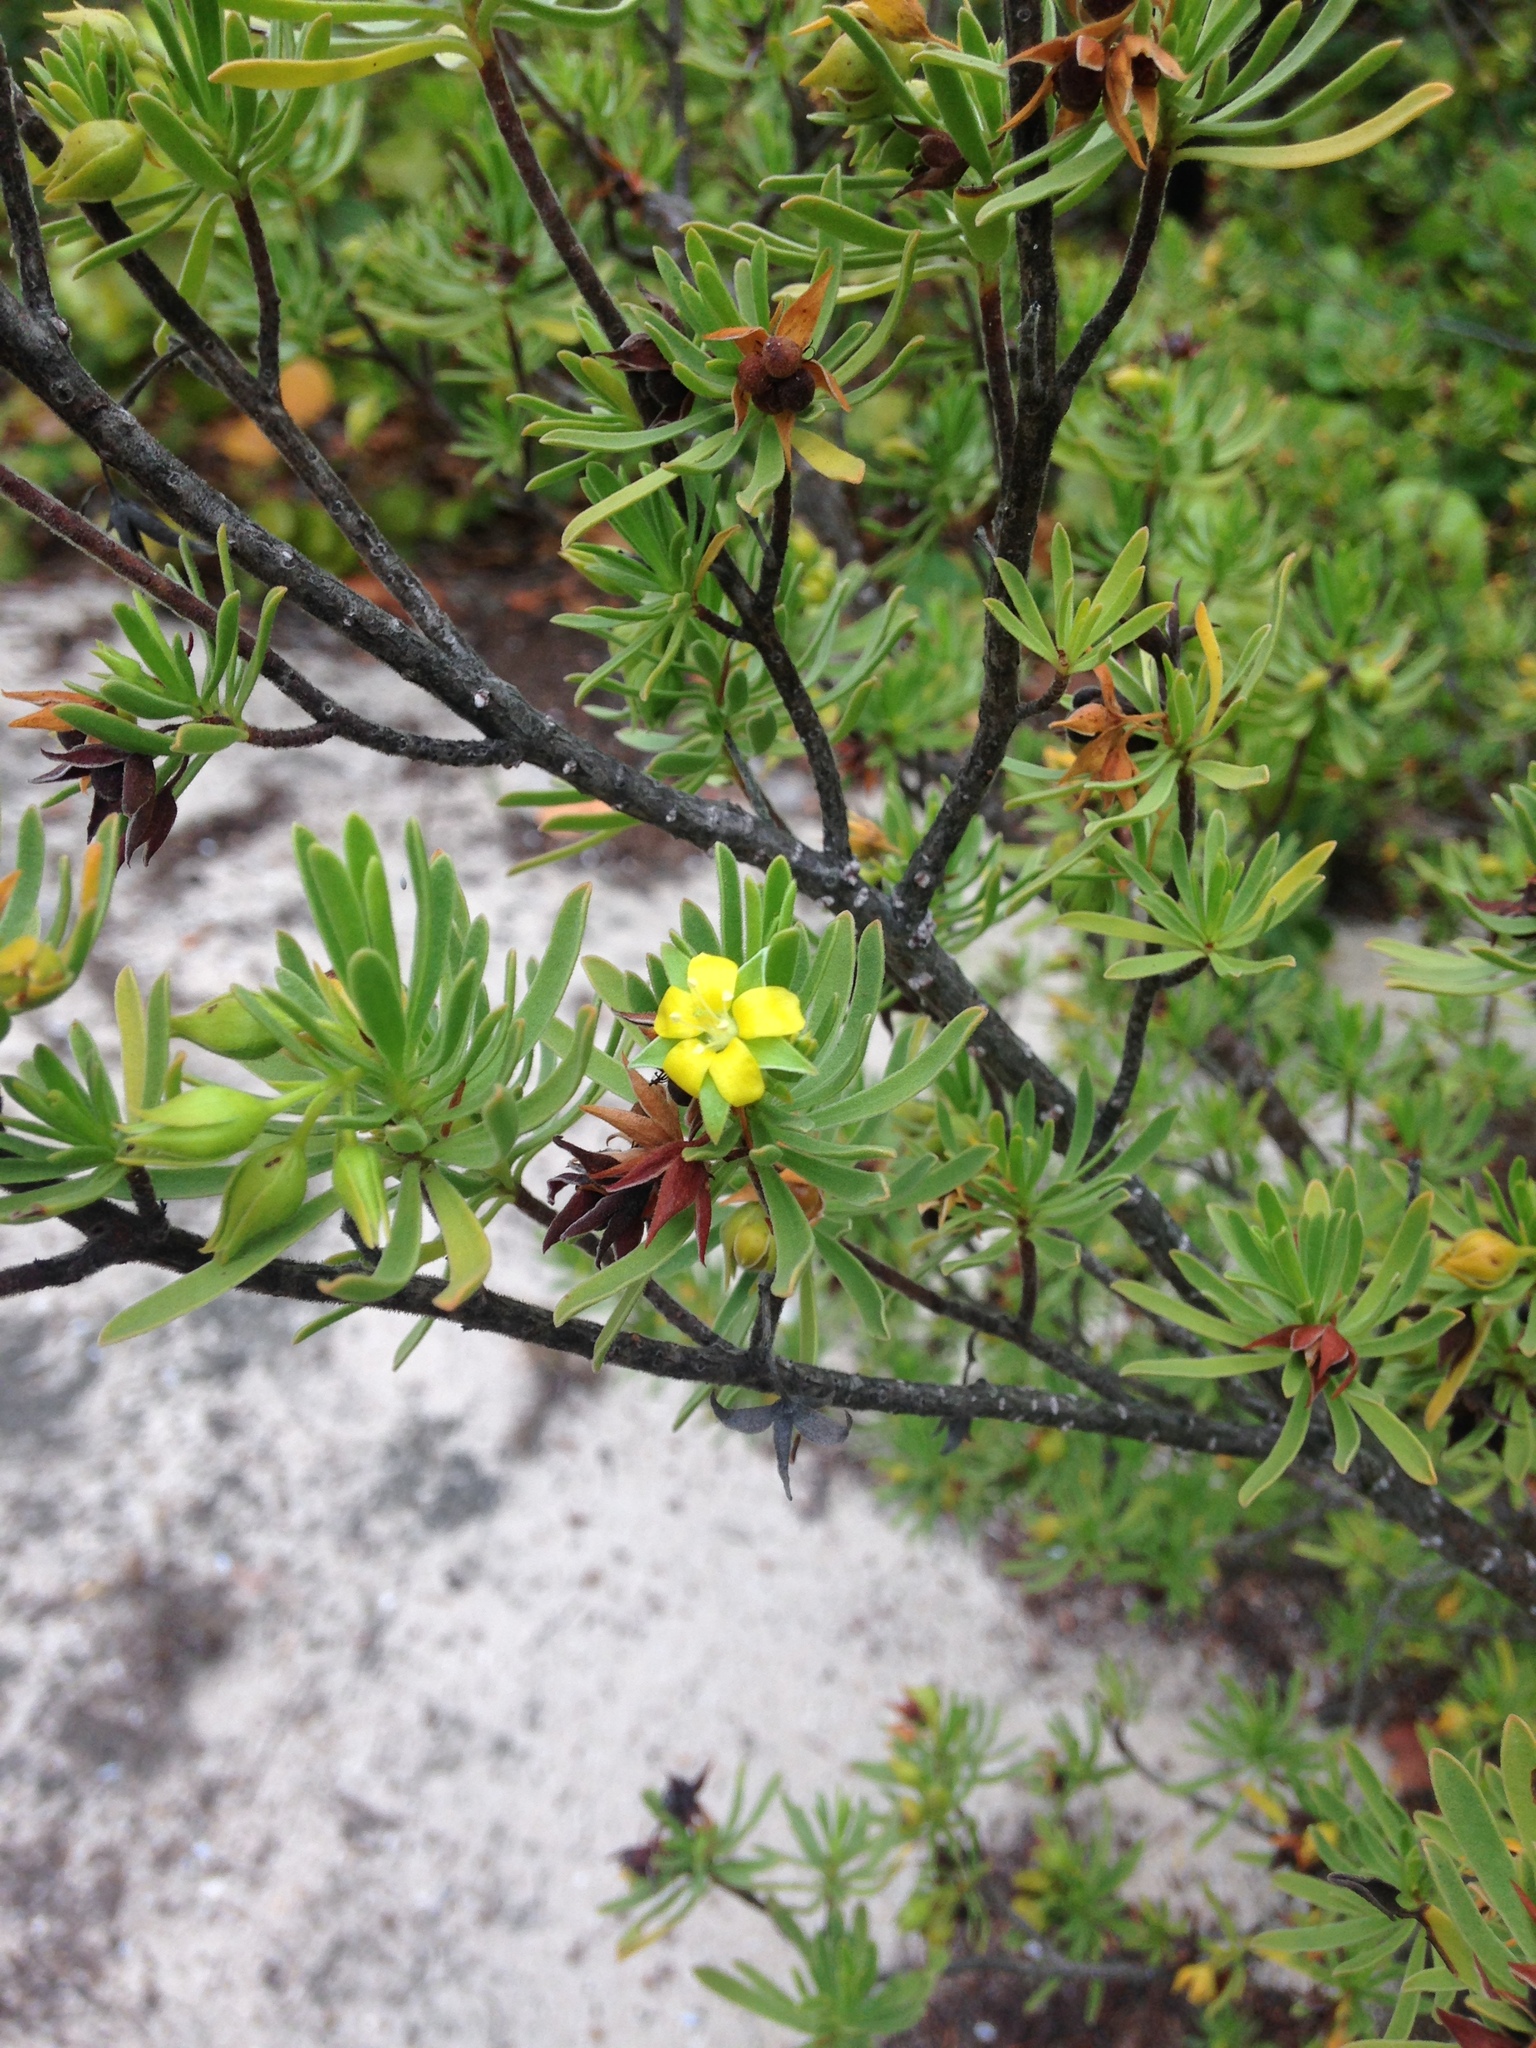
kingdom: Plantae
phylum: Tracheophyta
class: Magnoliopsida
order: Fabales
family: Surianaceae
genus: Suriana
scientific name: Suriana maritima
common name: Bay-cedar
